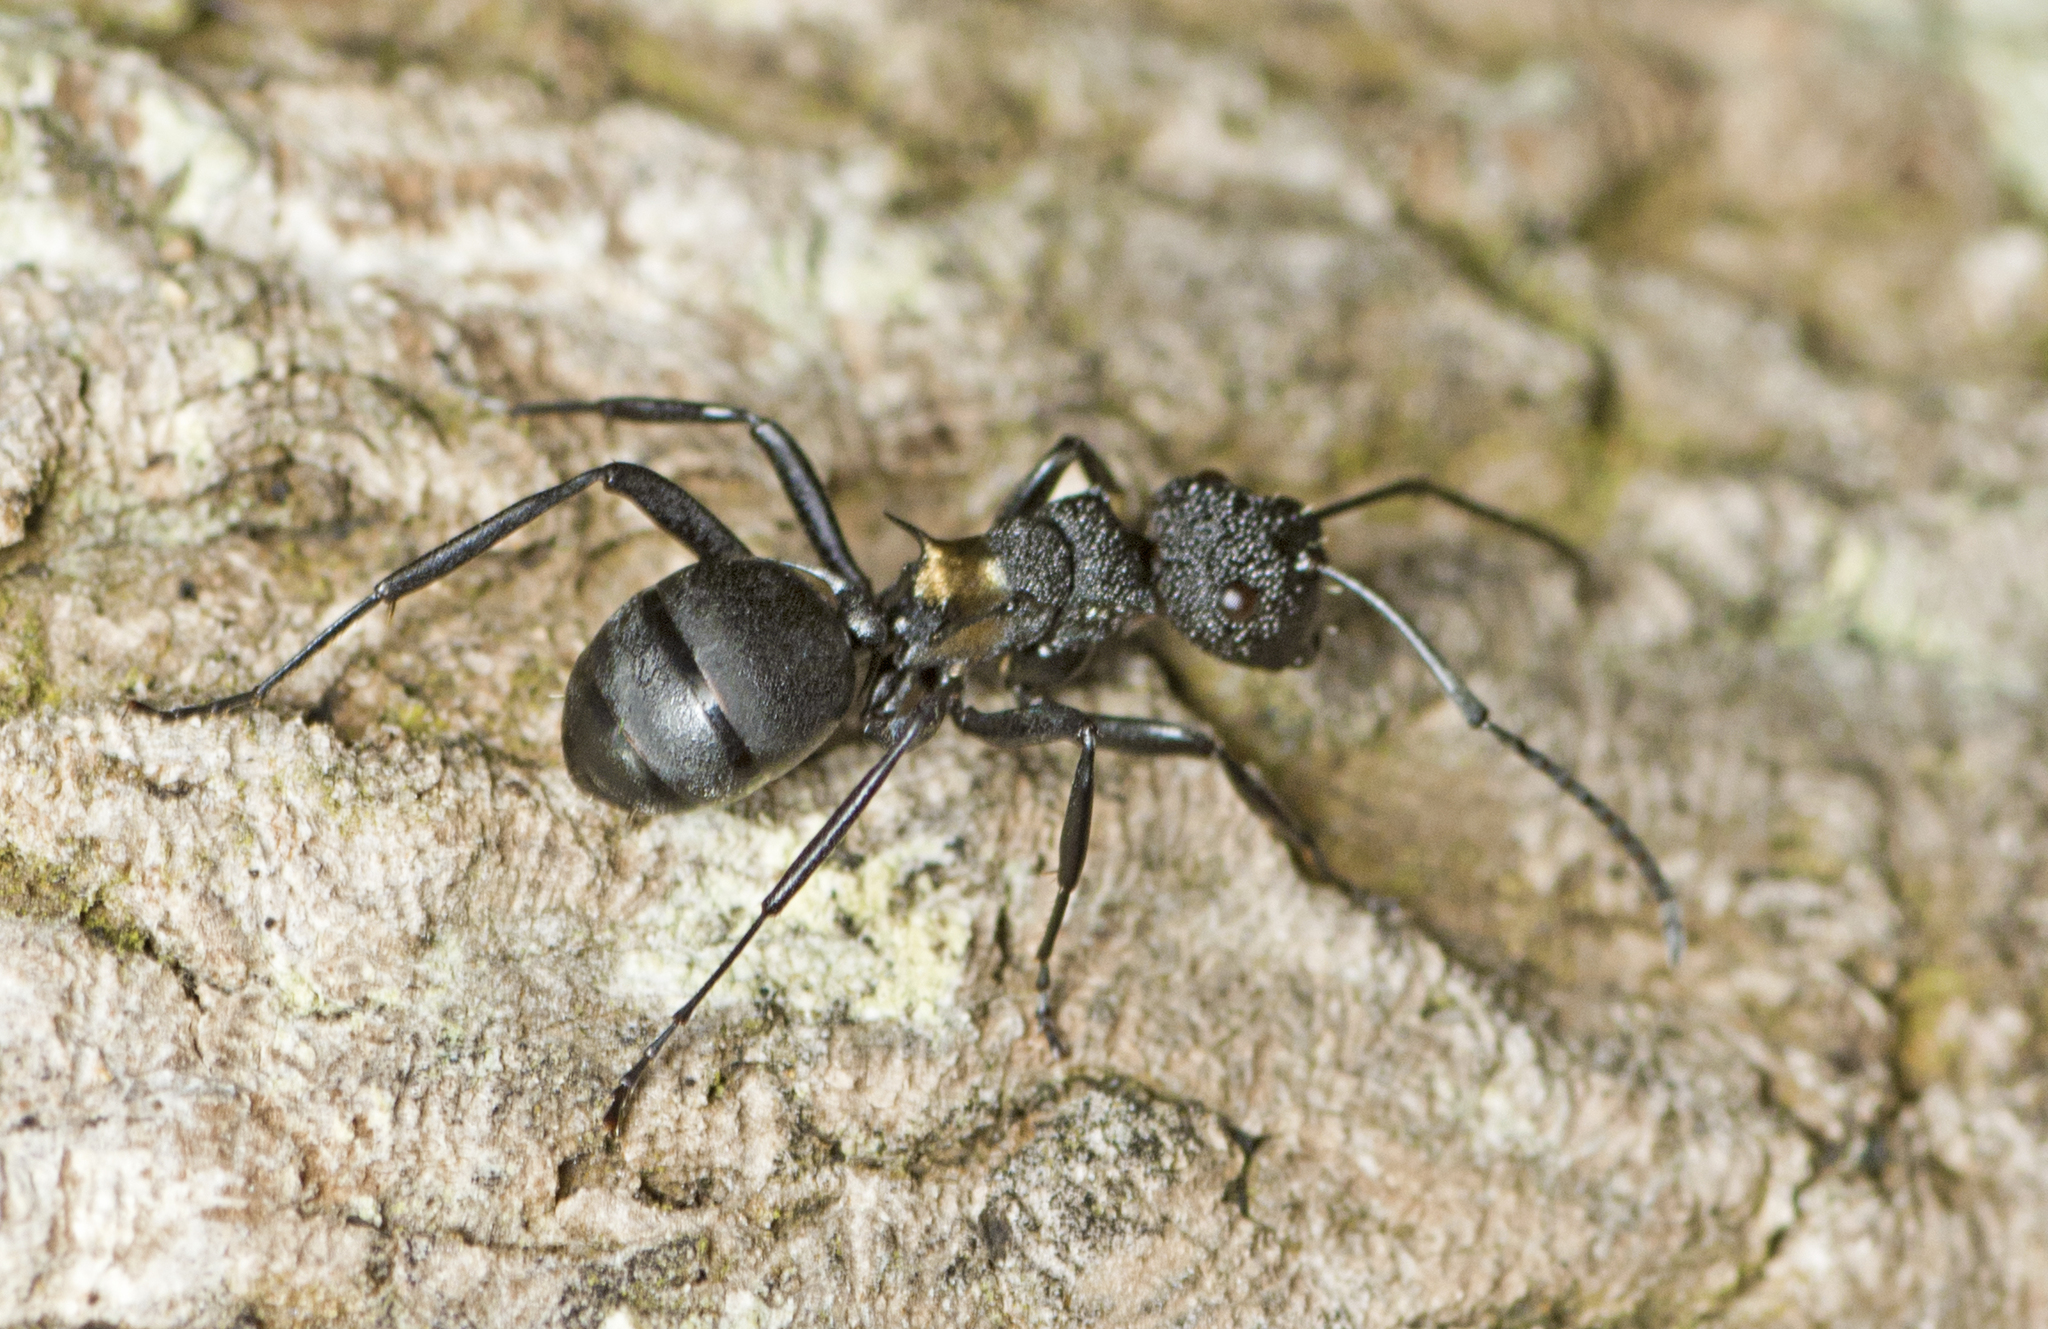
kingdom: Animalia
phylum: Arthropoda
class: Insecta
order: Hymenoptera
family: Formicidae
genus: Polyrhachis
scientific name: Polyrhachis machaon
